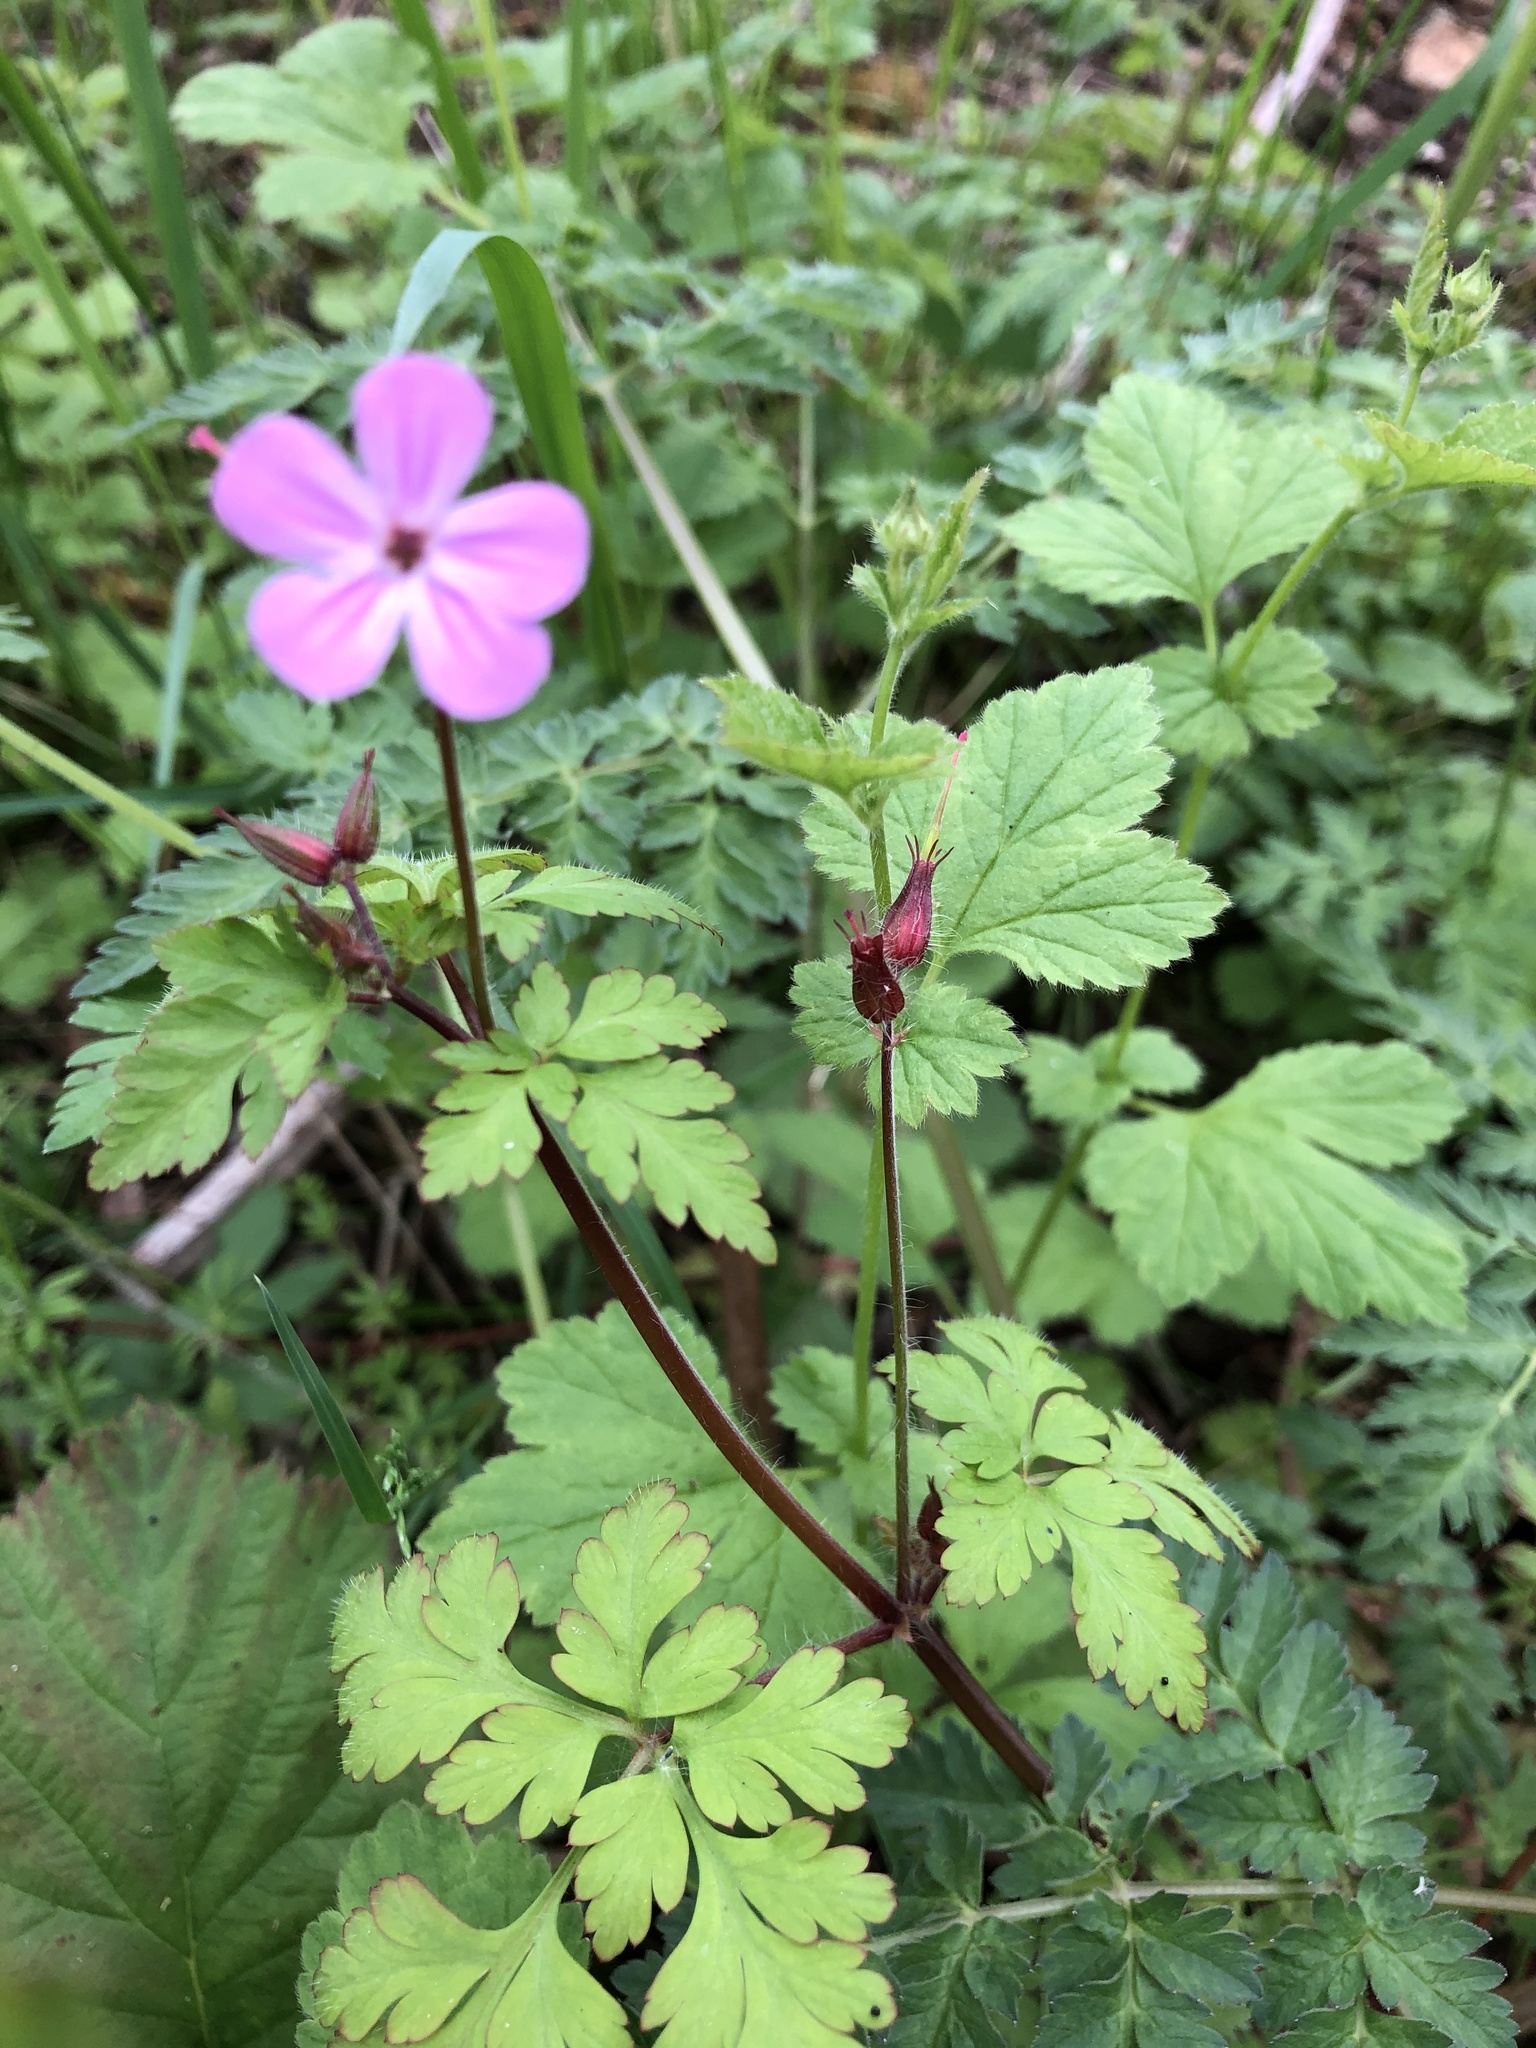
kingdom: Plantae
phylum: Tracheophyta
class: Magnoliopsida
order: Geraniales
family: Geraniaceae
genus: Geranium
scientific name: Geranium robertianum
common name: Herb-robert
